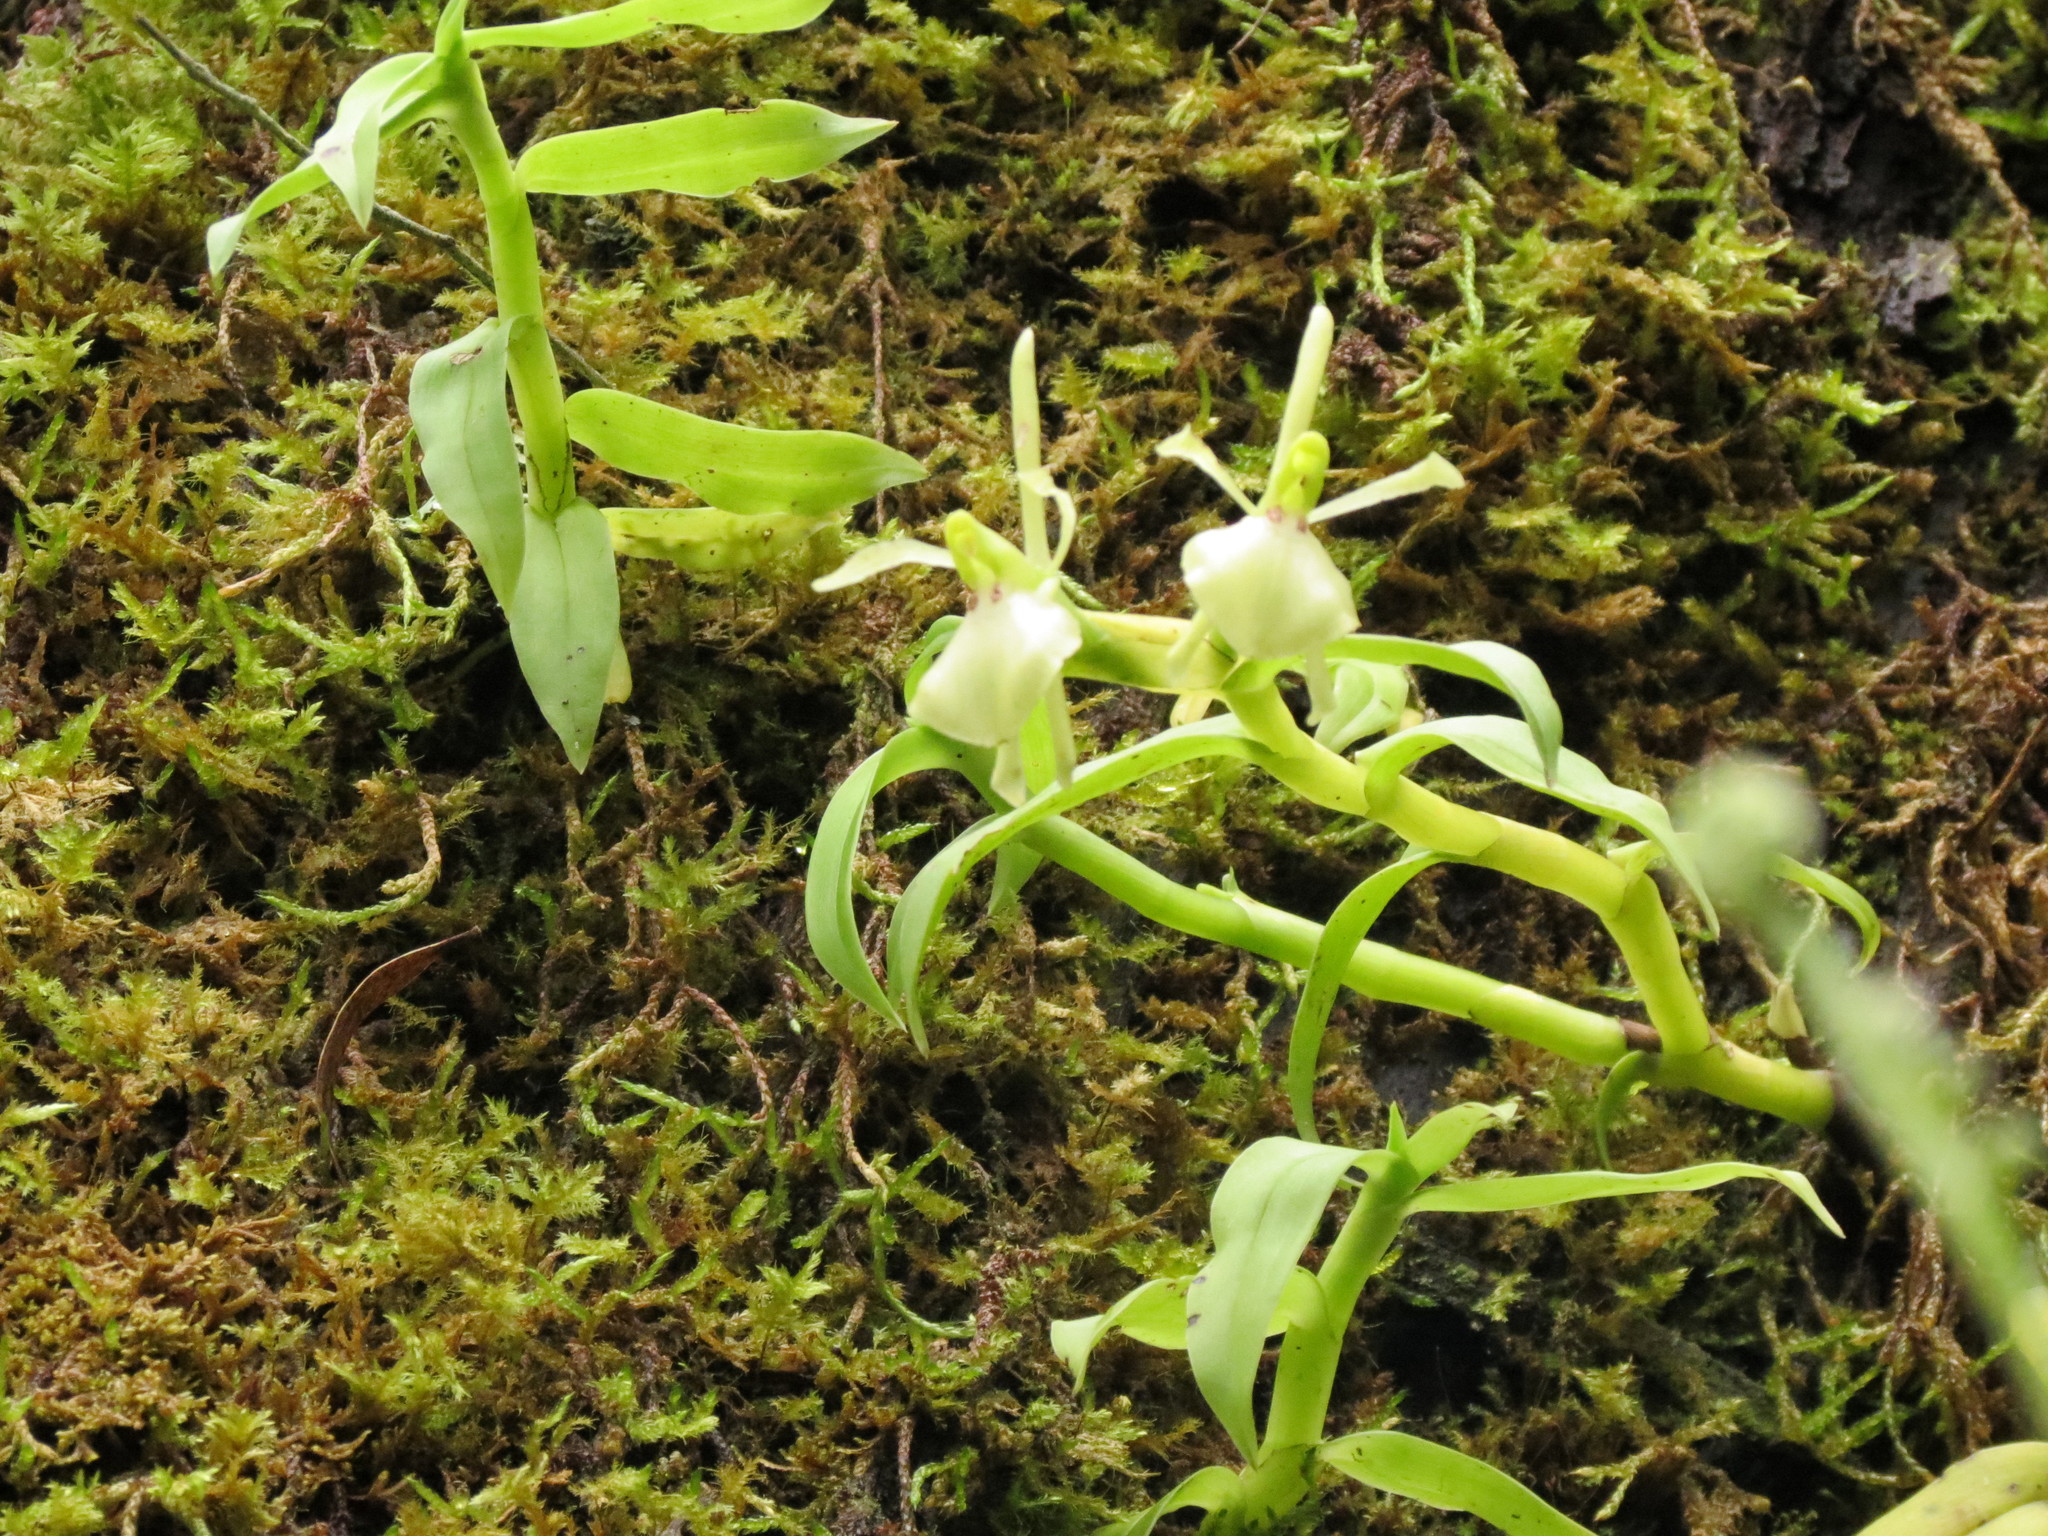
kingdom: Plantae
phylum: Tracheophyta
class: Liliopsida
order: Asparagales
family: Orchidaceae
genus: Epidendrum
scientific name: Epidendrum pachyclinium
